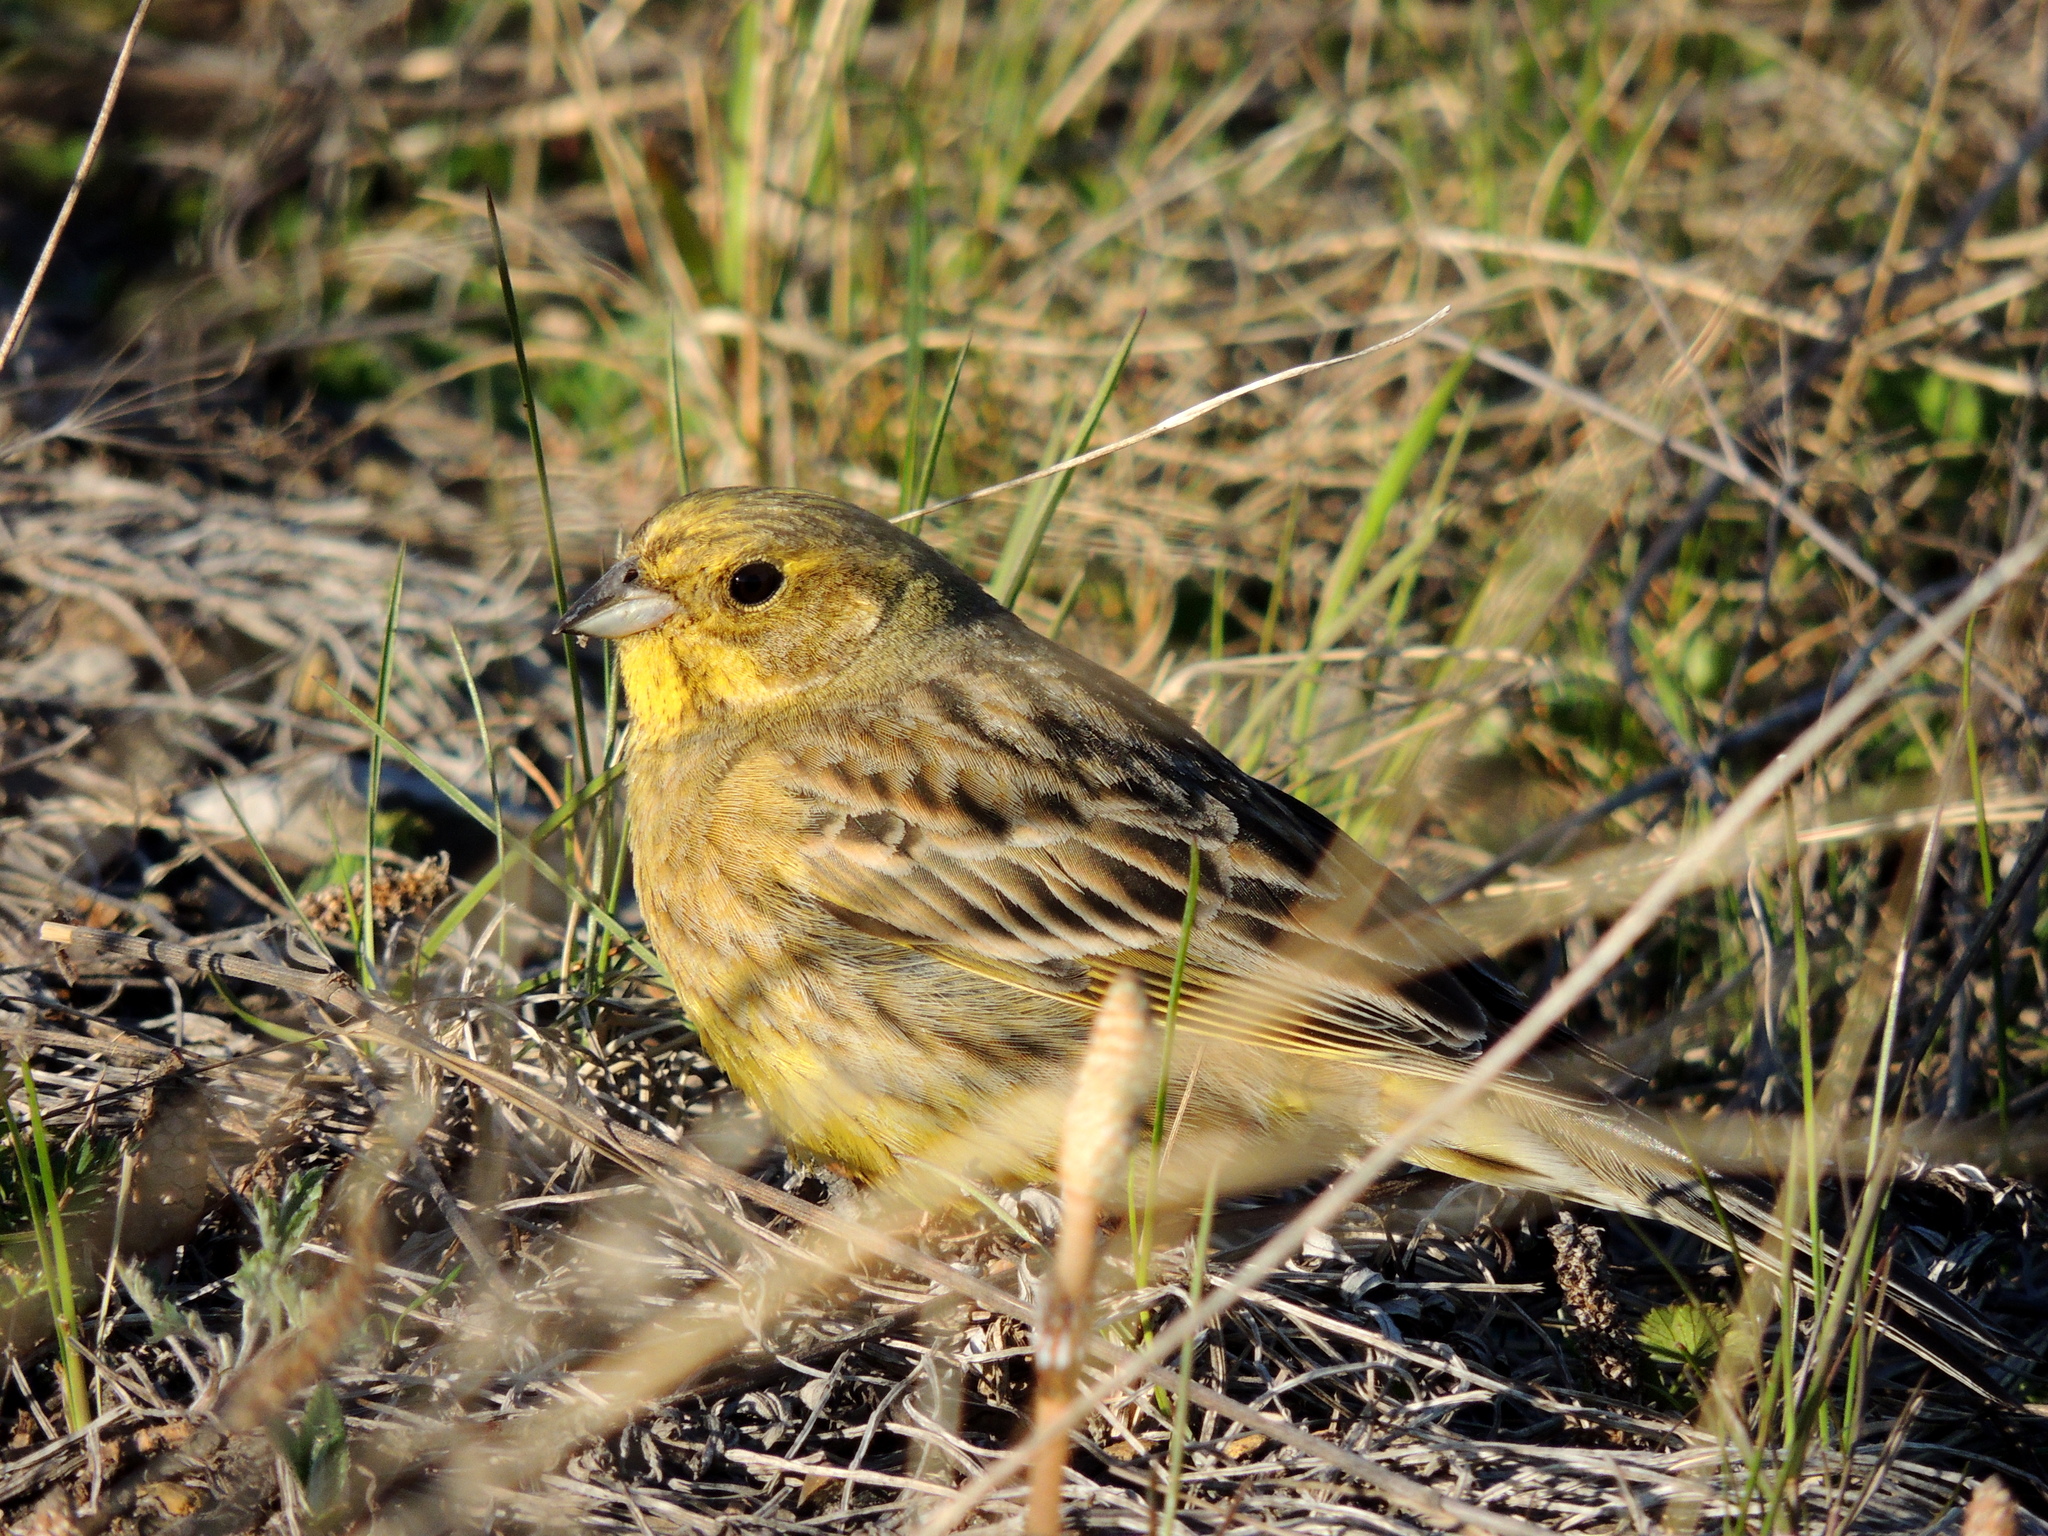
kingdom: Animalia
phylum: Chordata
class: Aves
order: Passeriformes
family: Emberizidae
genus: Emberiza
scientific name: Emberiza citrinella
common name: Yellowhammer
